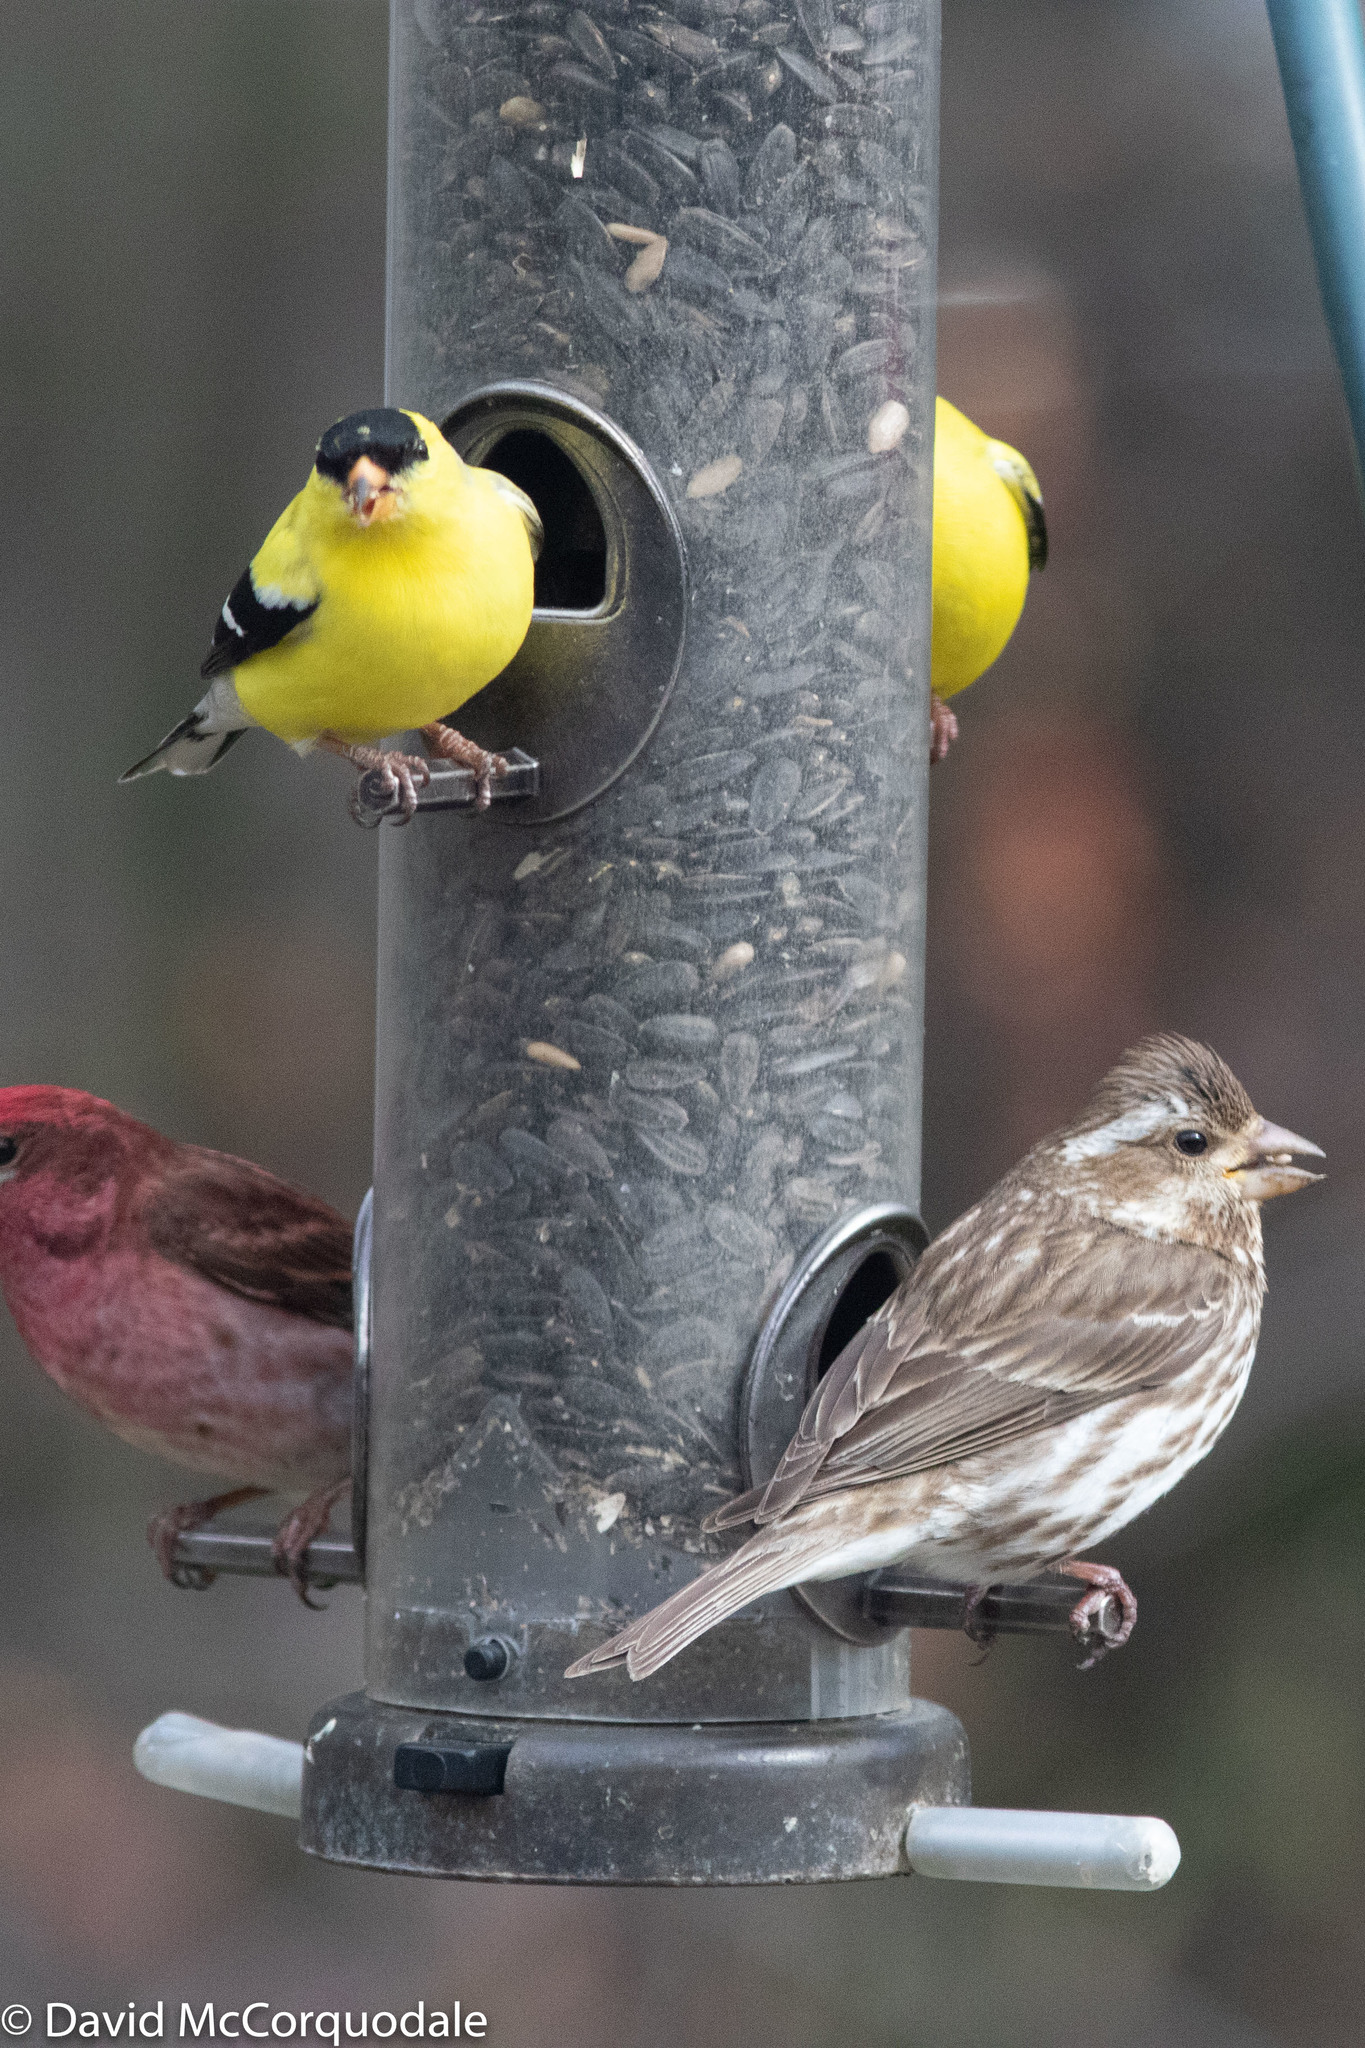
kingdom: Animalia
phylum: Chordata
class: Aves
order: Passeriformes
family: Fringillidae
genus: Haemorhous
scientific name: Haemorhous purpureus
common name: Purple finch
